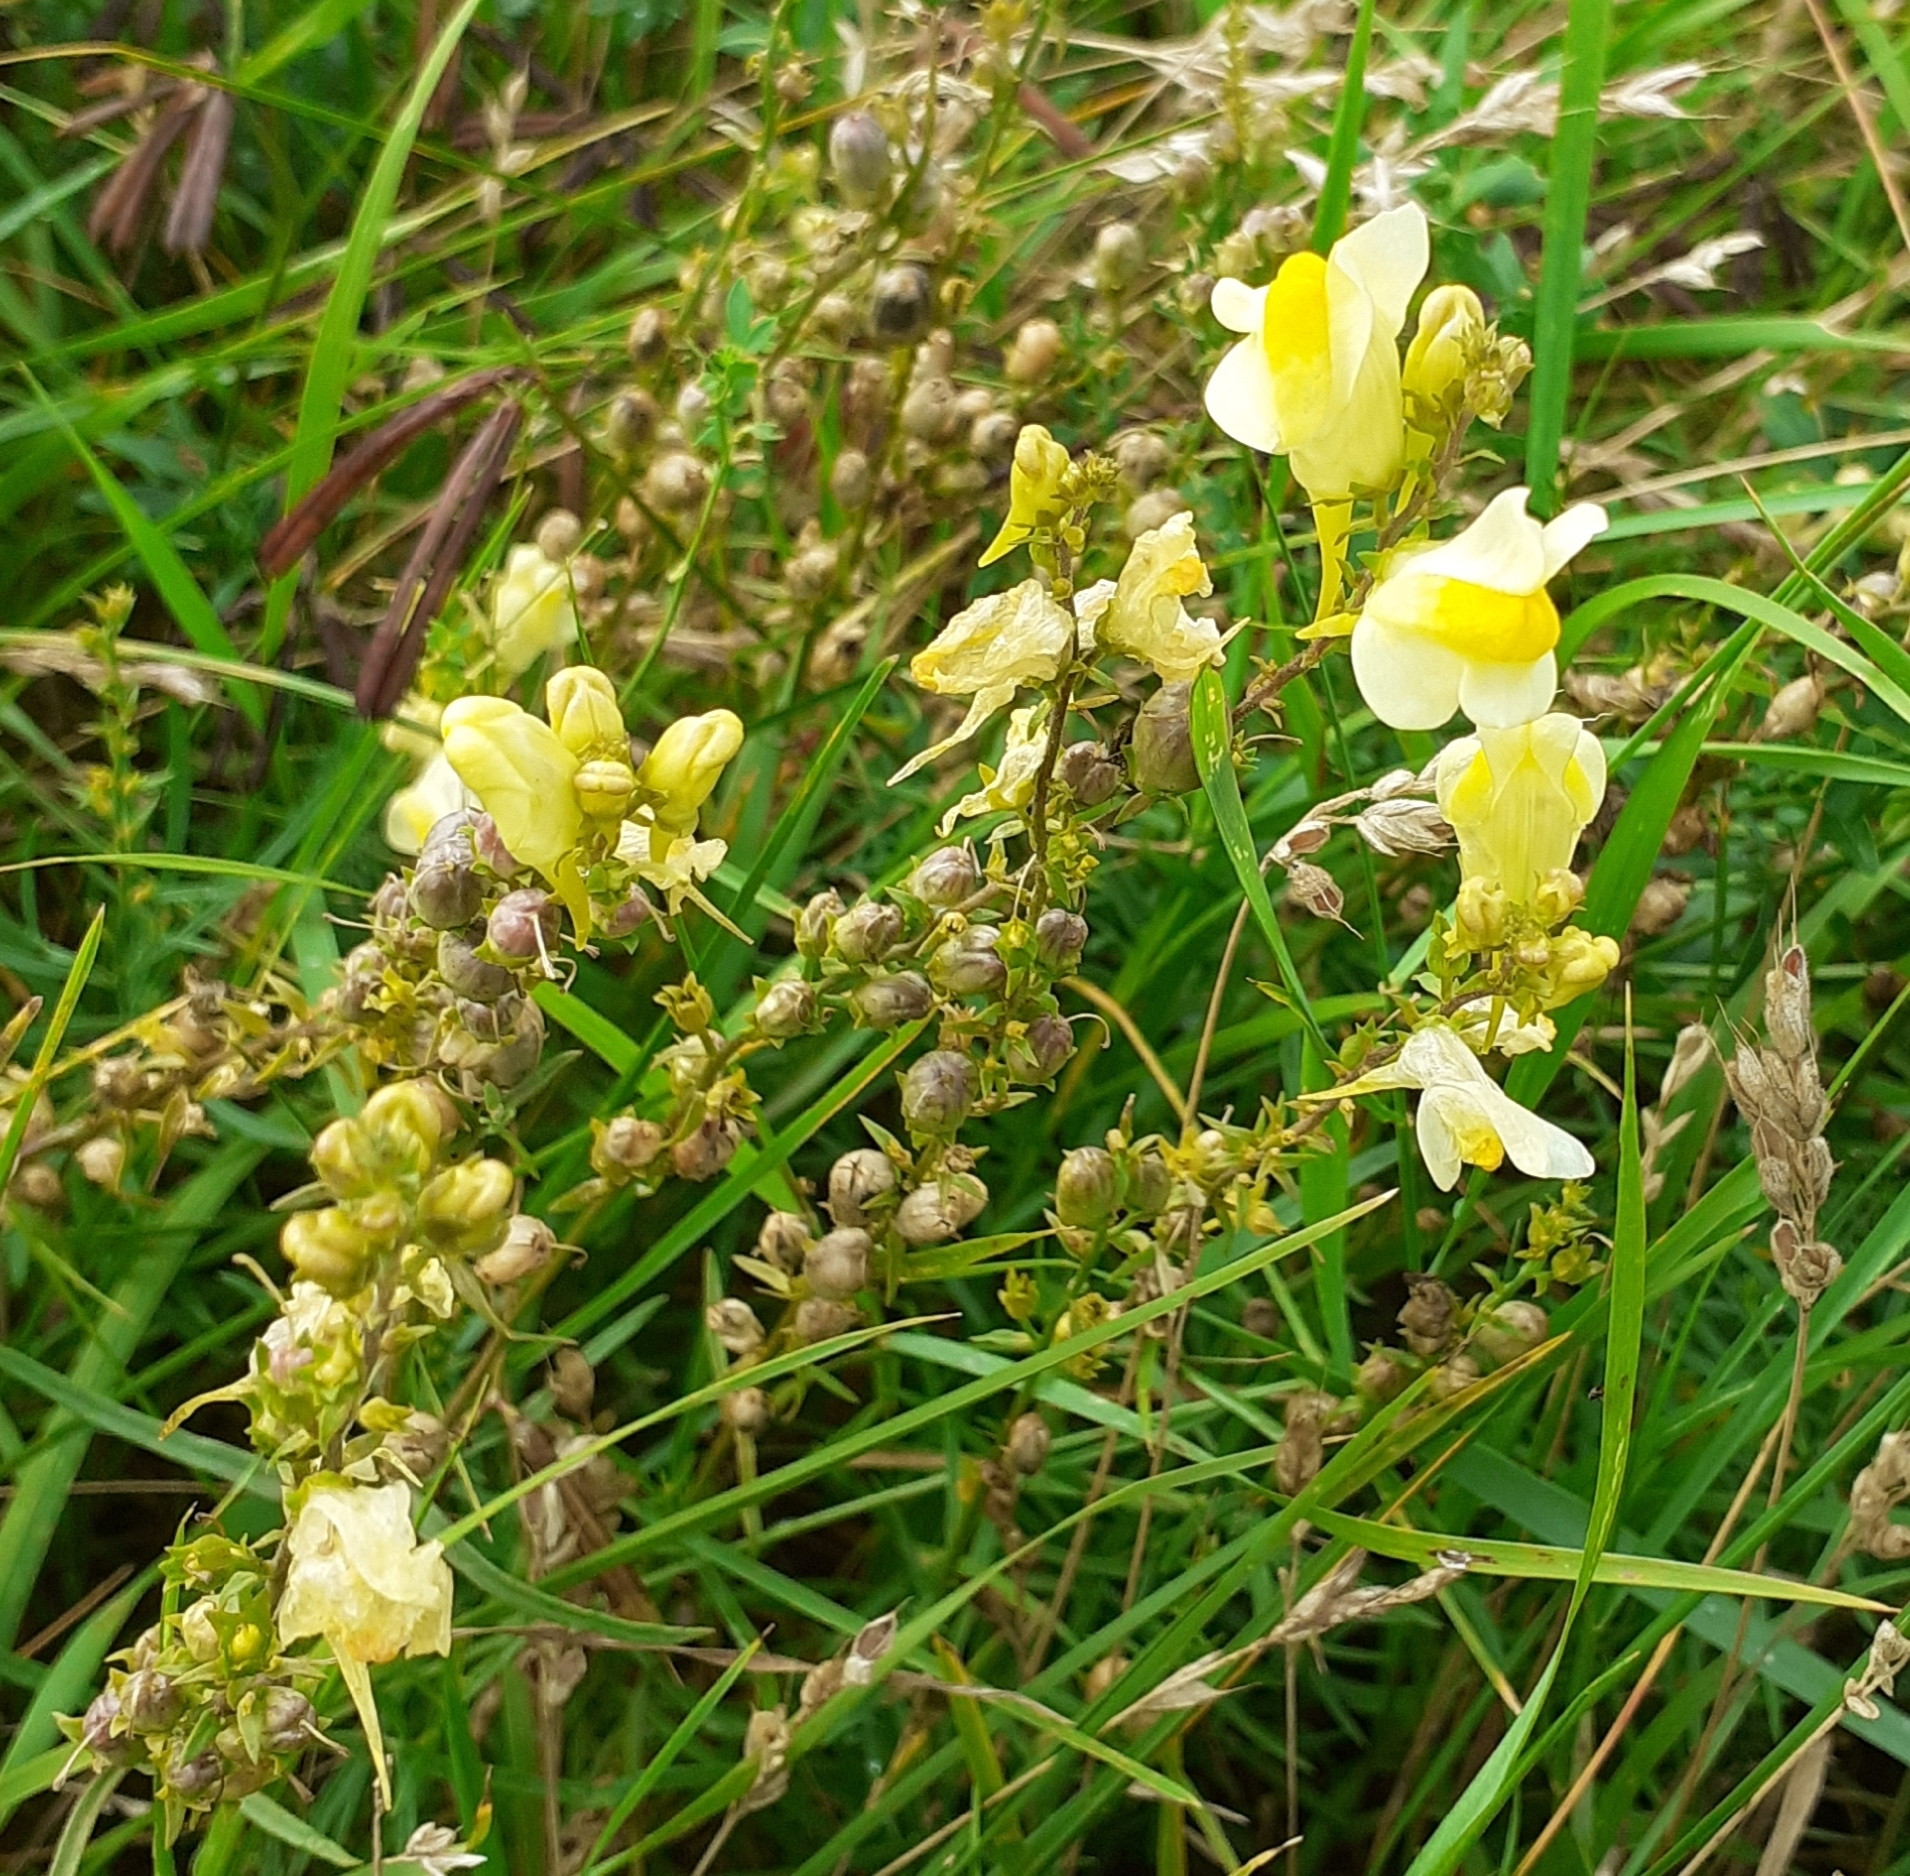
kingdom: Plantae
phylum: Tracheophyta
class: Magnoliopsida
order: Lamiales
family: Plantaginaceae
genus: Linaria
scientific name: Linaria vulgaris
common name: Butter and eggs
